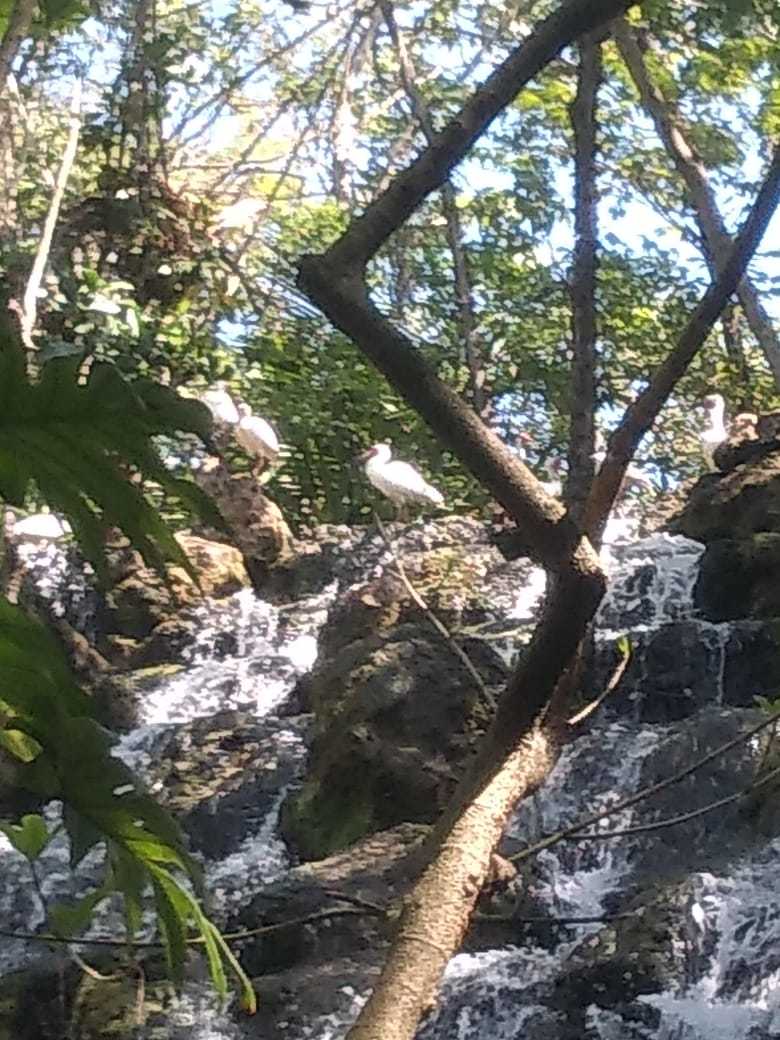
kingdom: Animalia
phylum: Chordata
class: Aves
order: Pelecaniformes
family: Threskiornithidae
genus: Eudocimus
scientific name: Eudocimus albus
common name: White ibis
